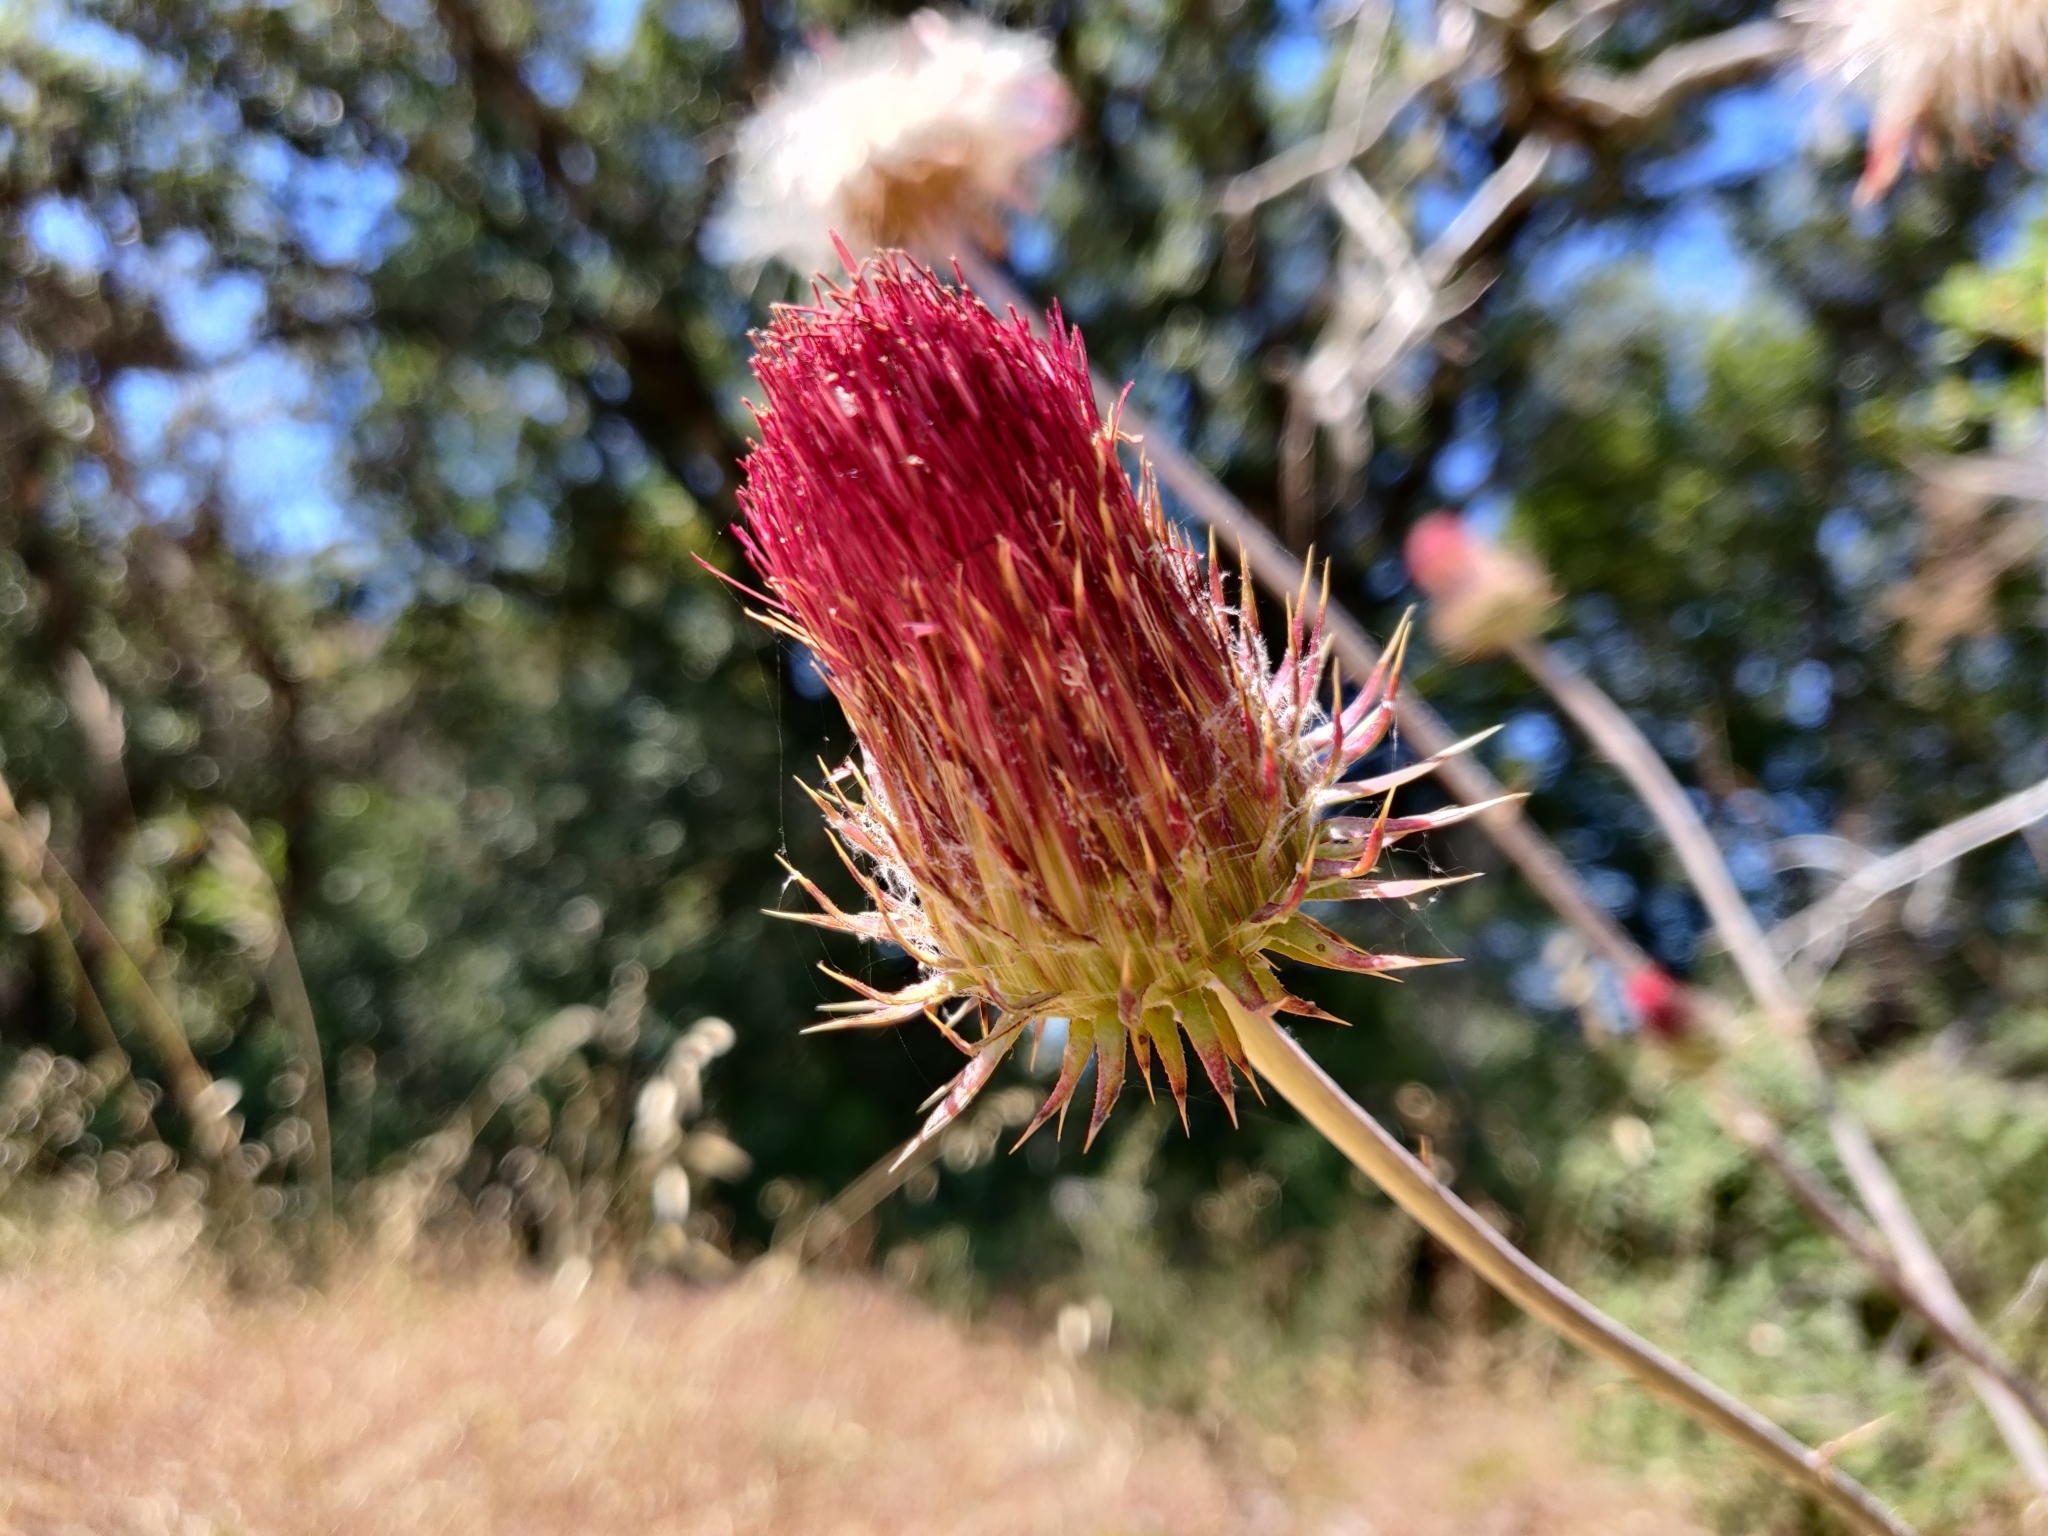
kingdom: Plantae
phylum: Tracheophyta
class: Magnoliopsida
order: Asterales
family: Asteraceae
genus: Cirsium
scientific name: Cirsium occidentale
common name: Western thistle
